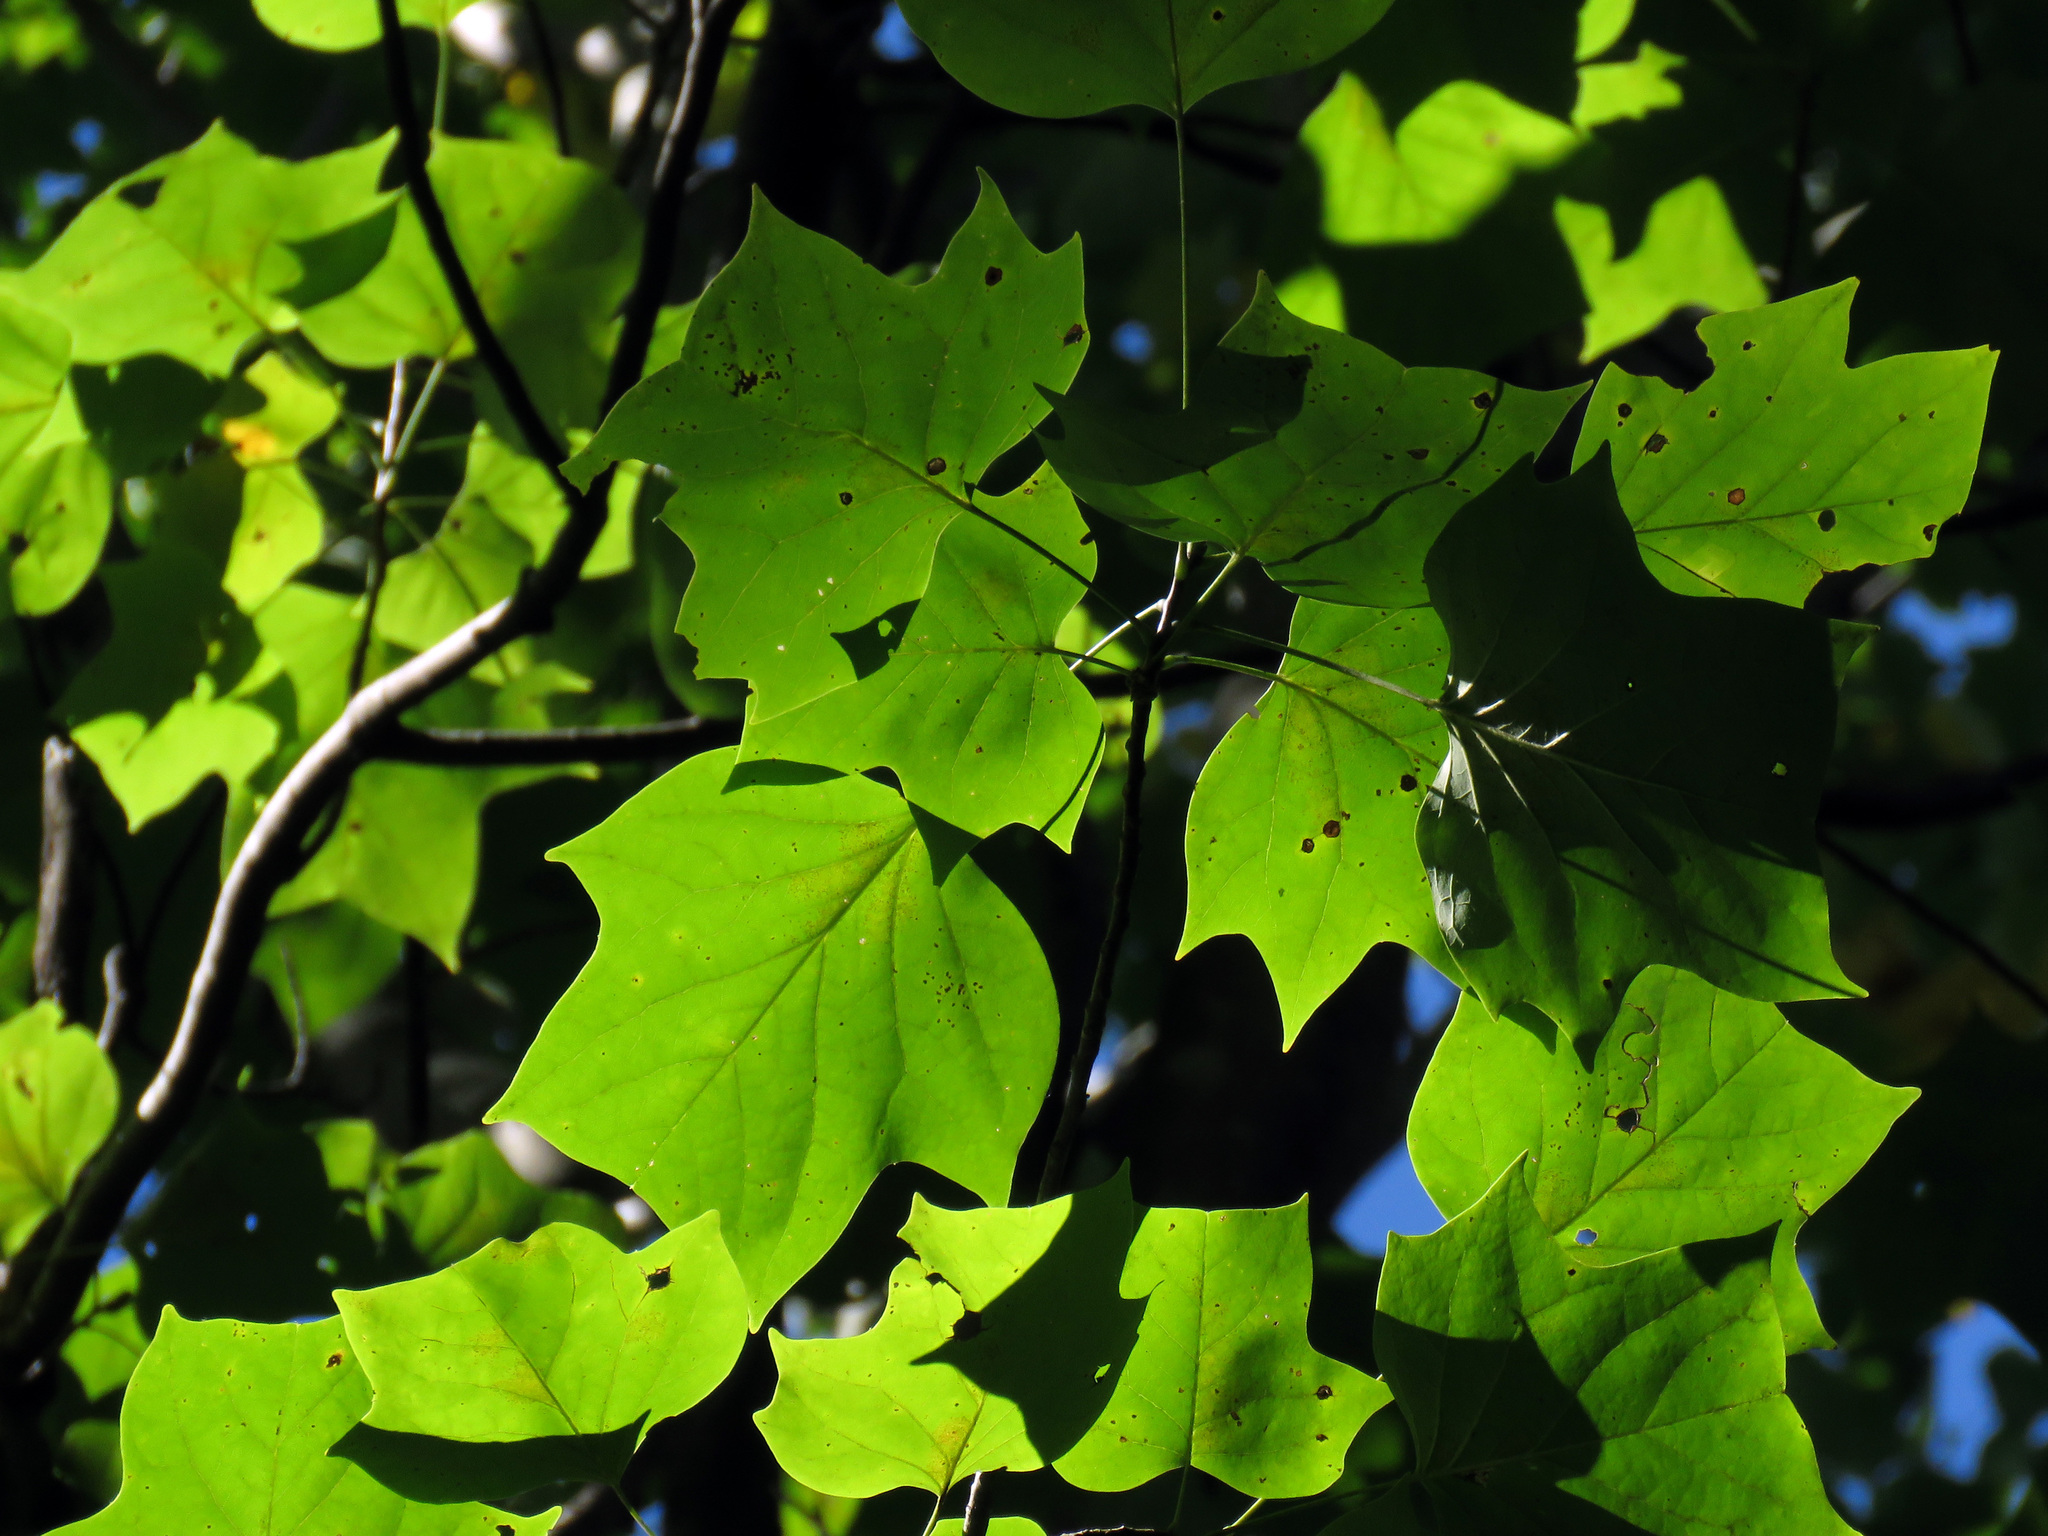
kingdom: Plantae
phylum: Tracheophyta
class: Magnoliopsida
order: Magnoliales
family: Magnoliaceae
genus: Liriodendron
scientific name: Liriodendron tulipifera
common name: Tulip tree
